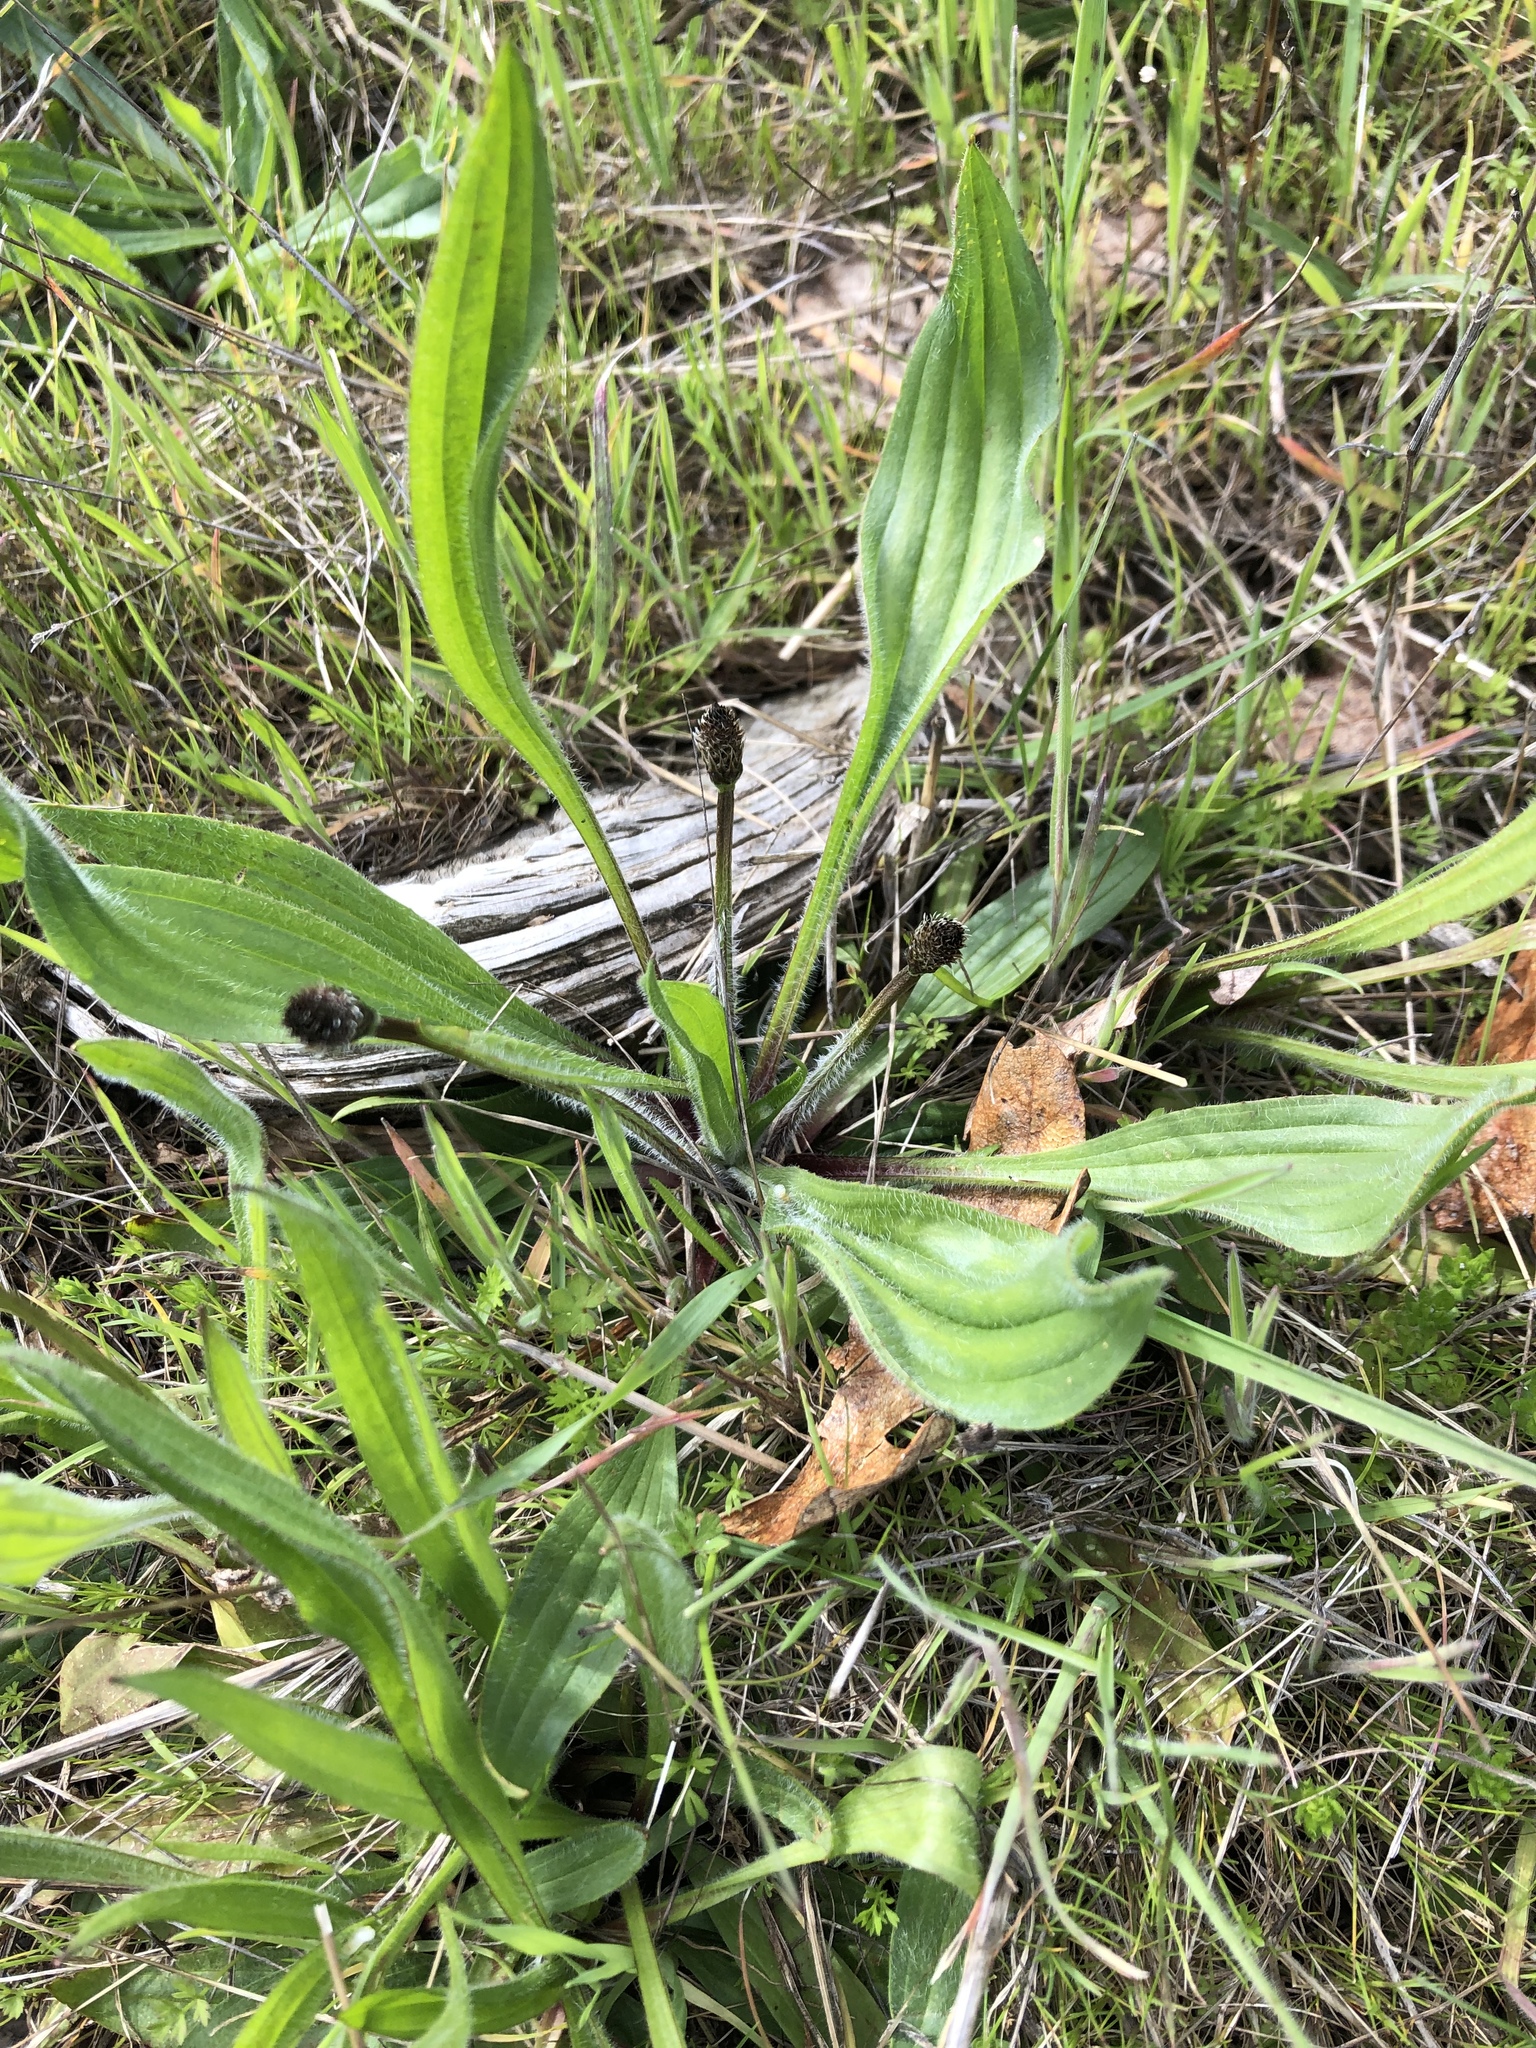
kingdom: Plantae
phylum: Tracheophyta
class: Magnoliopsida
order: Lamiales
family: Plantaginaceae
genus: Plantago
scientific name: Plantago lanceolata
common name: Ribwort plantain
